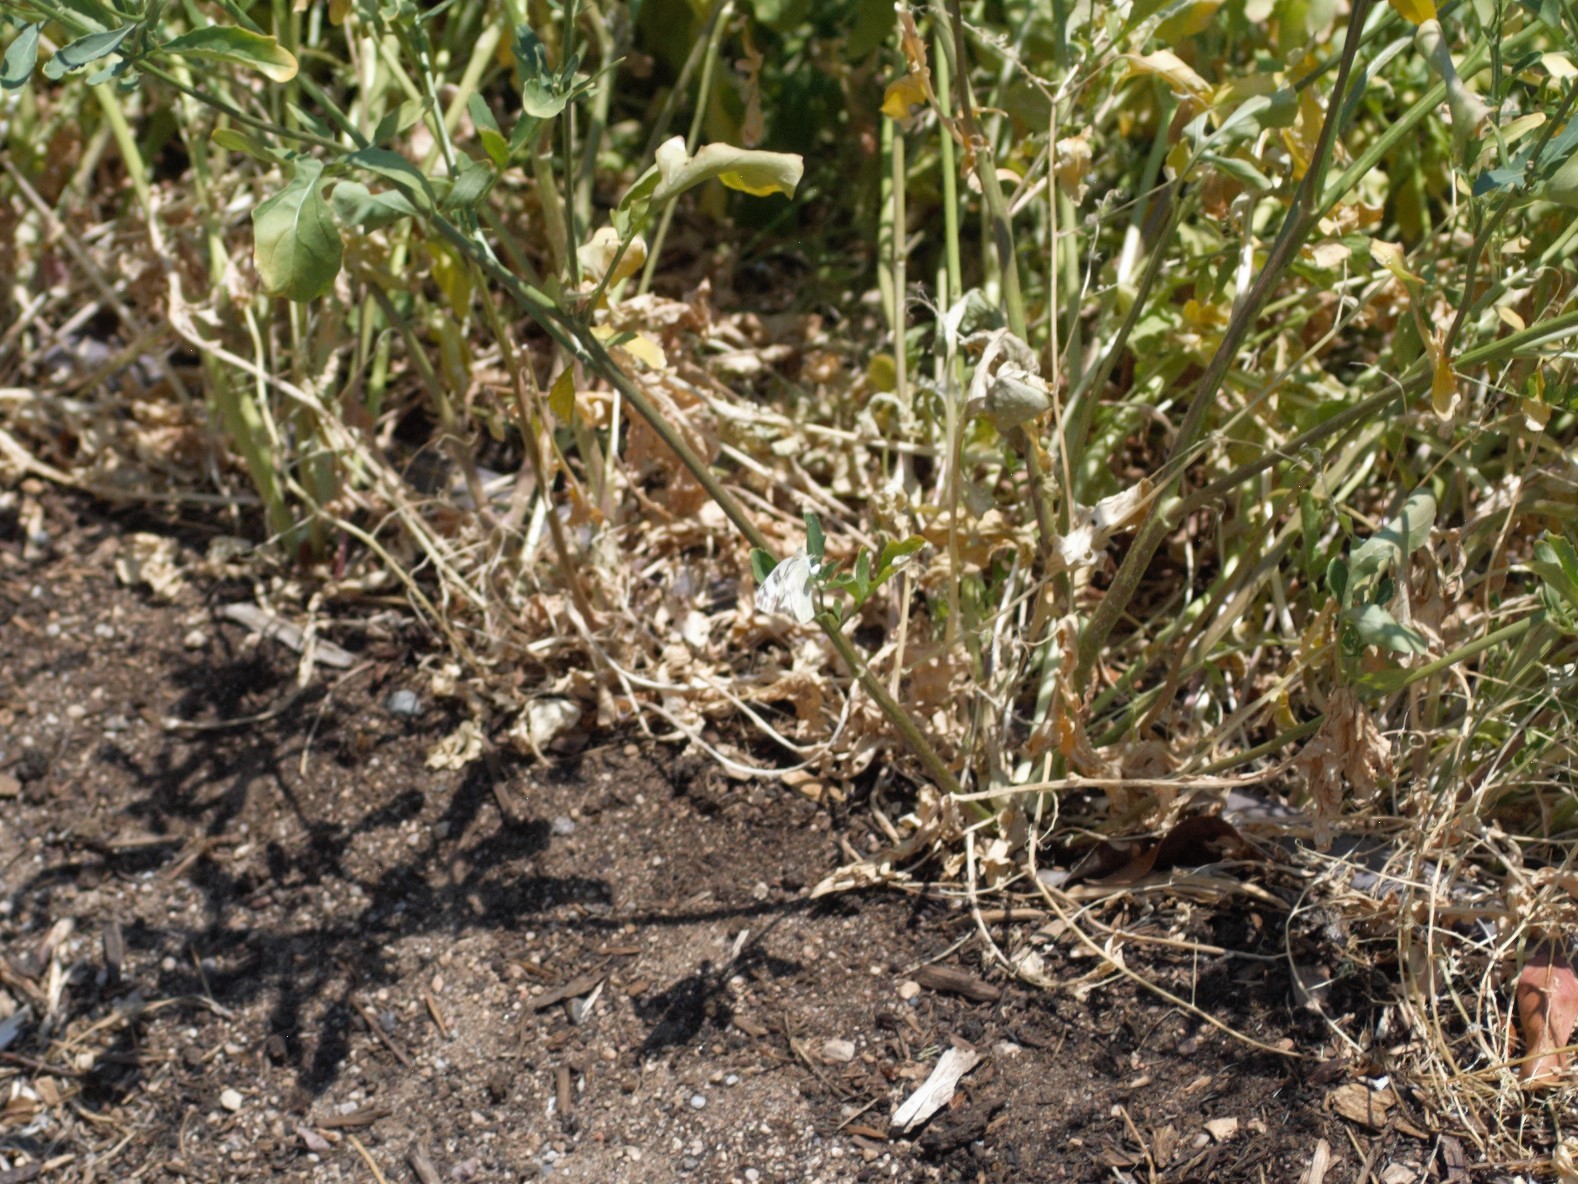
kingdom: Animalia
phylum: Arthropoda
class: Insecta
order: Lepidoptera
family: Pieridae
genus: Pontia
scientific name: Pontia protodice
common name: Checkered white
